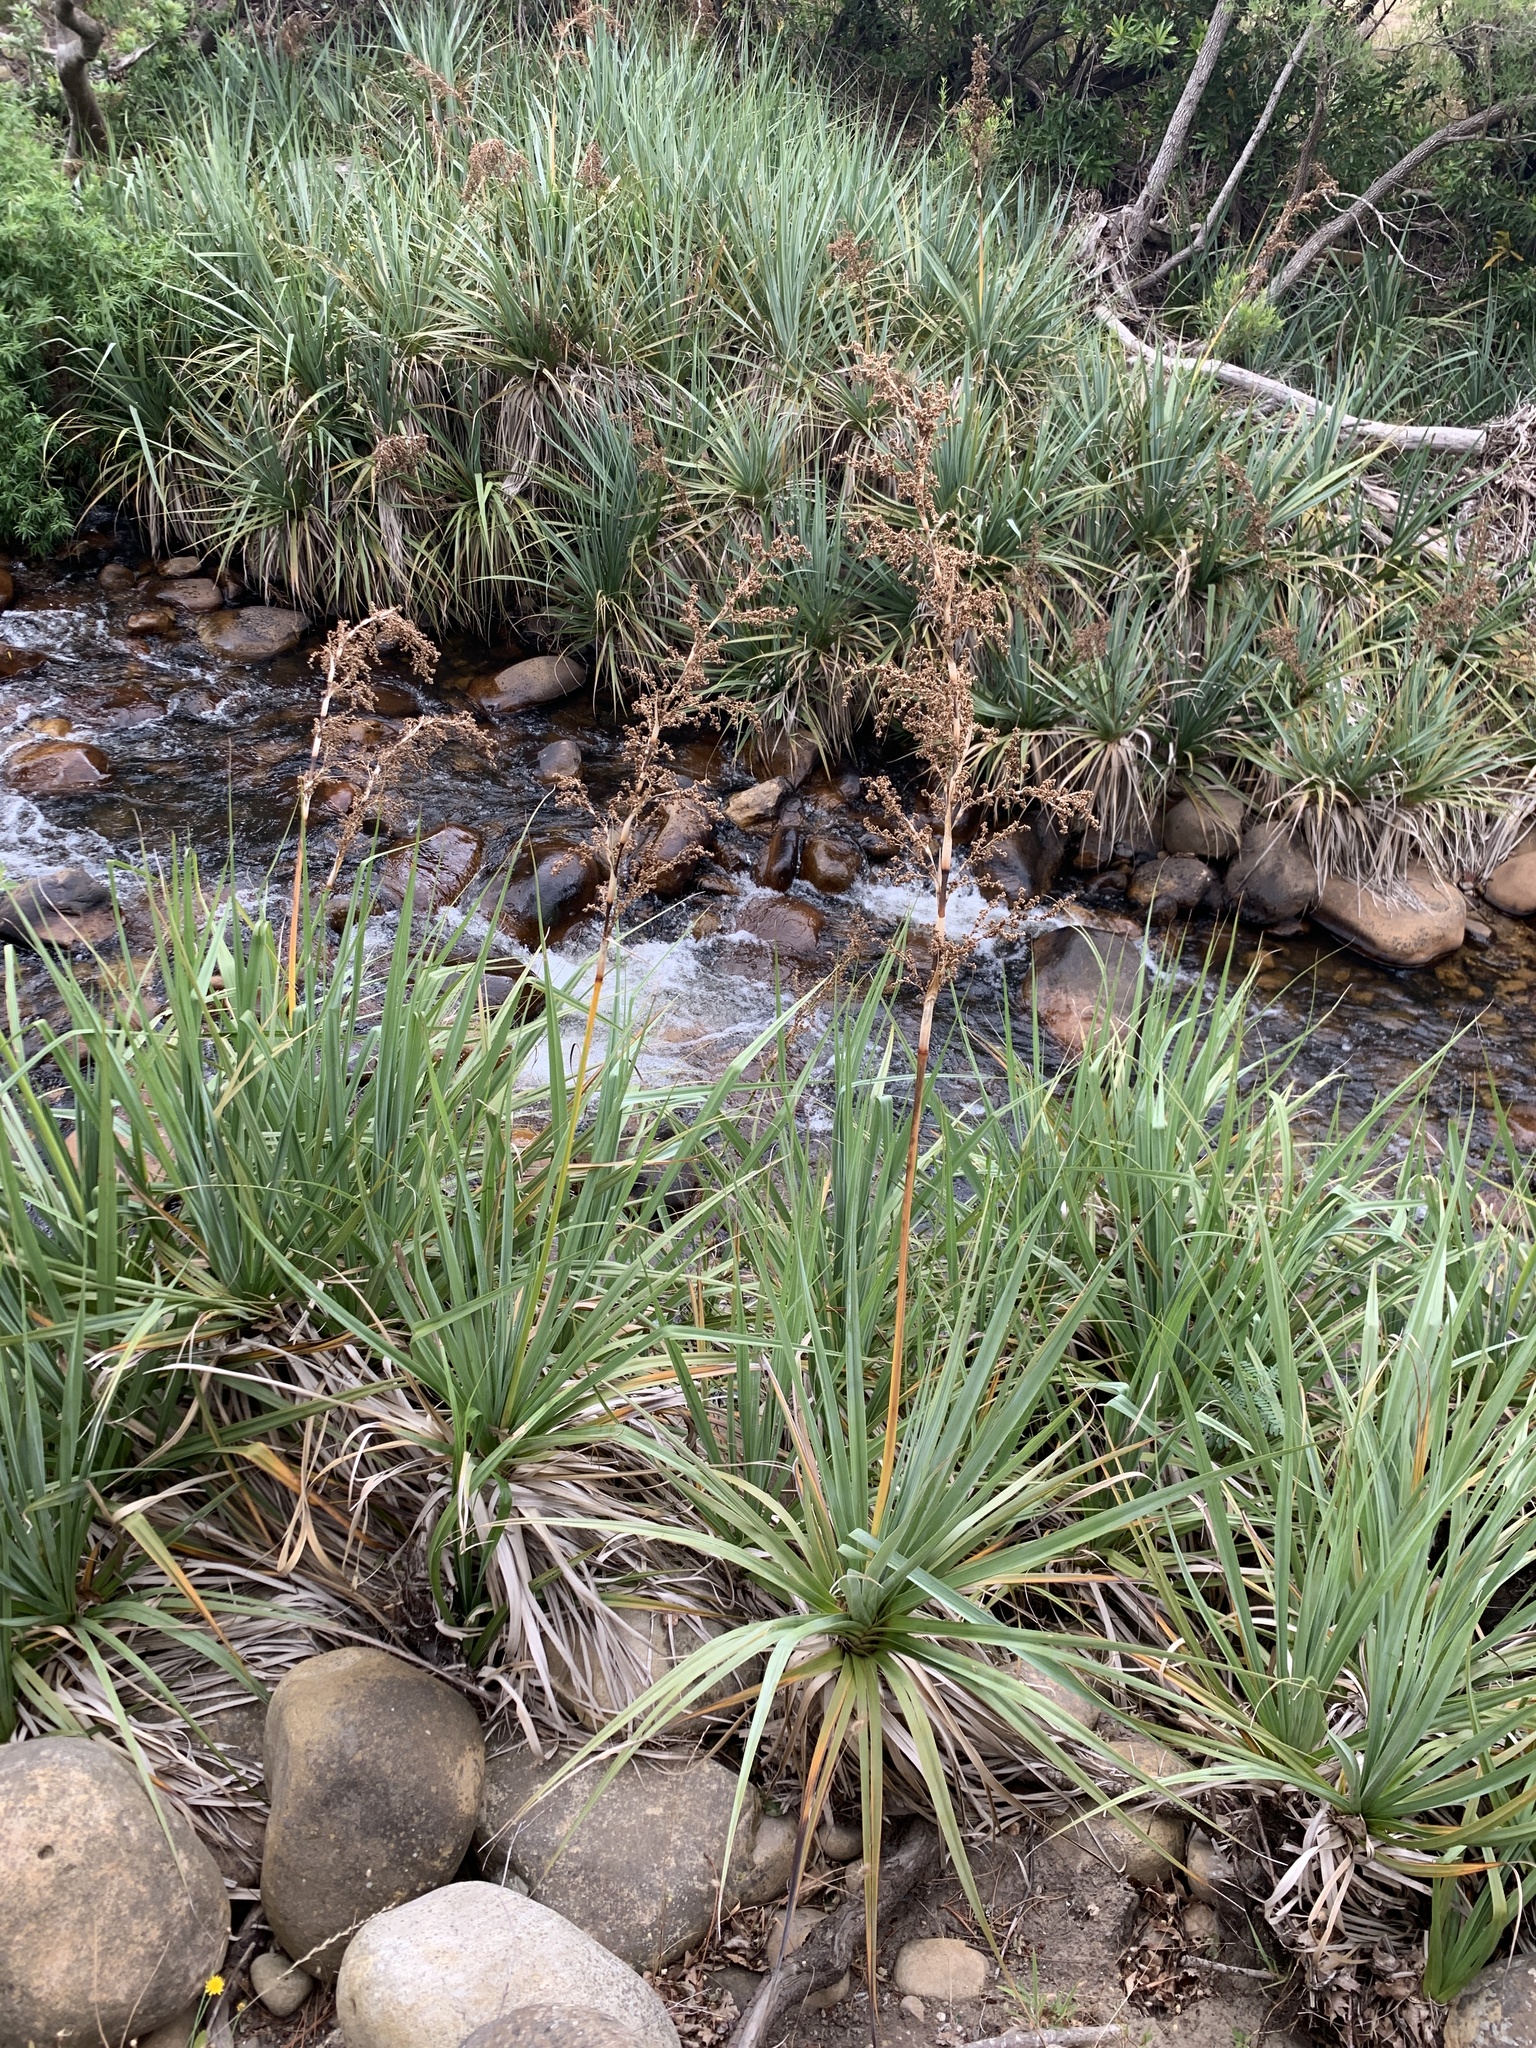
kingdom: Plantae
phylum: Tracheophyta
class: Liliopsida
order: Poales
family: Thurniaceae
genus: Prionium
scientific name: Prionium serratum
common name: Palmiet
